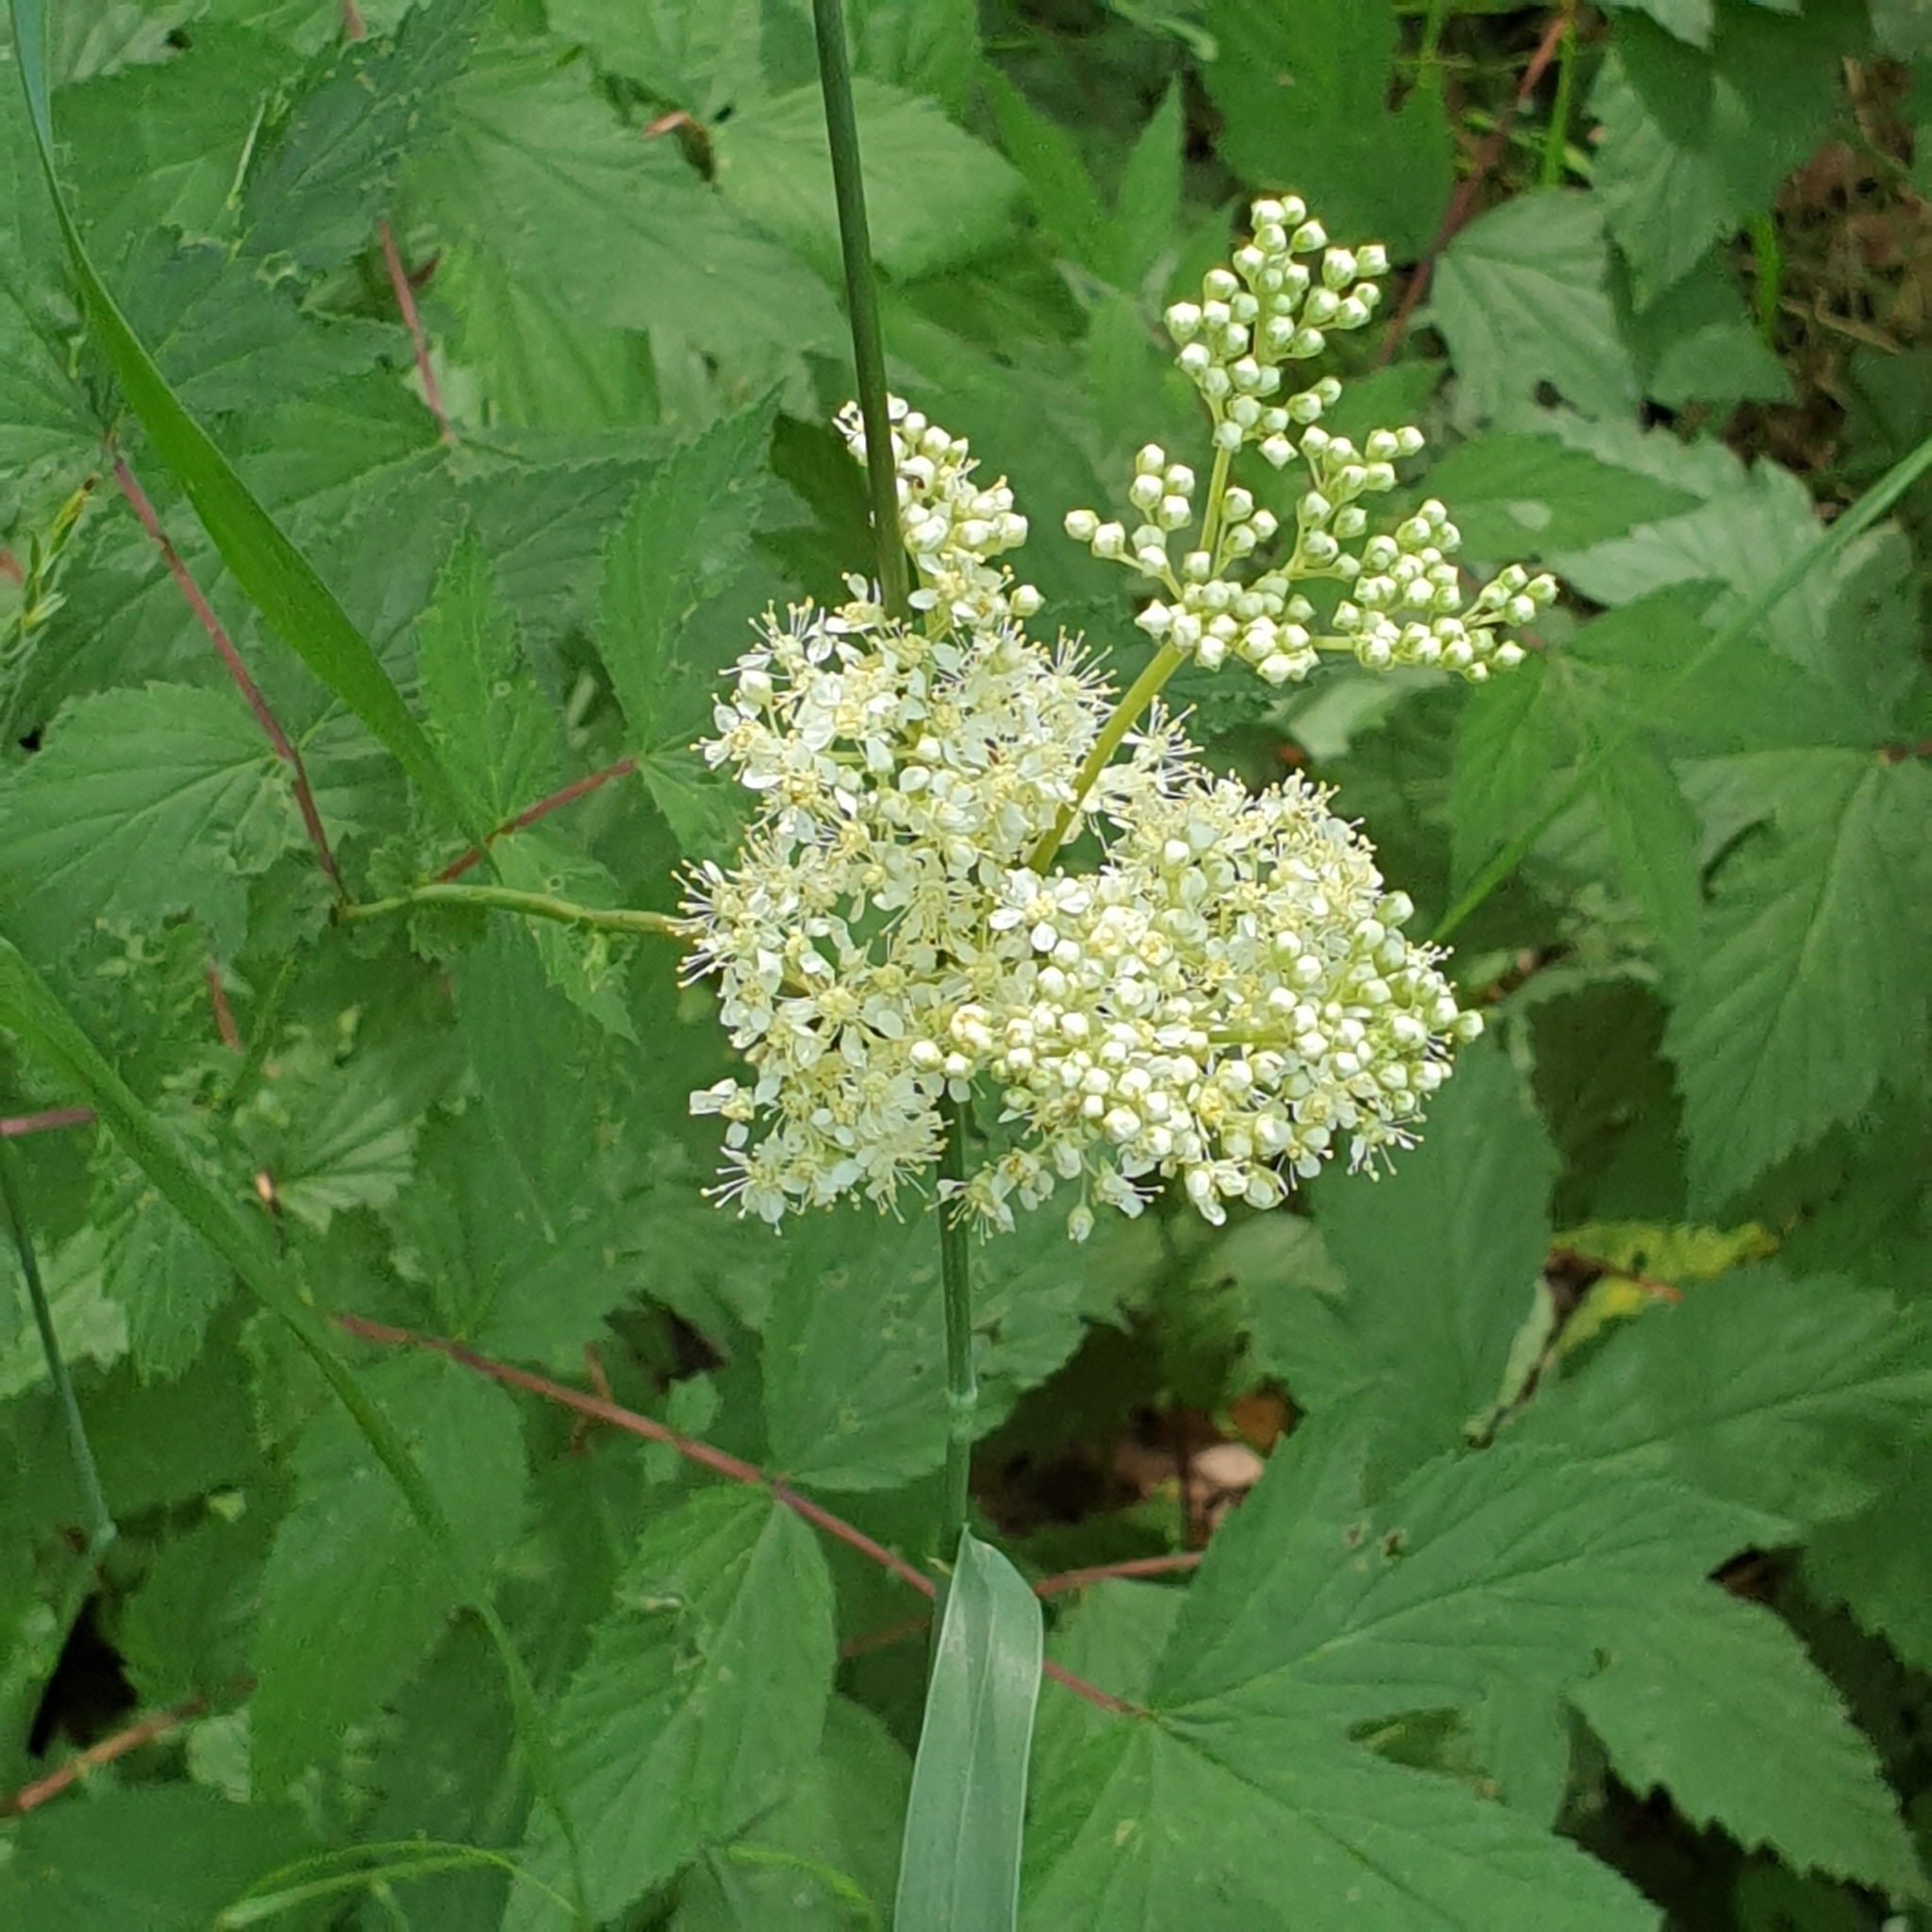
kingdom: Plantae
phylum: Tracheophyta
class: Magnoliopsida
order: Rosales
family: Rosaceae
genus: Filipendula
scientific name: Filipendula ulmaria
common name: Meadowsweet
